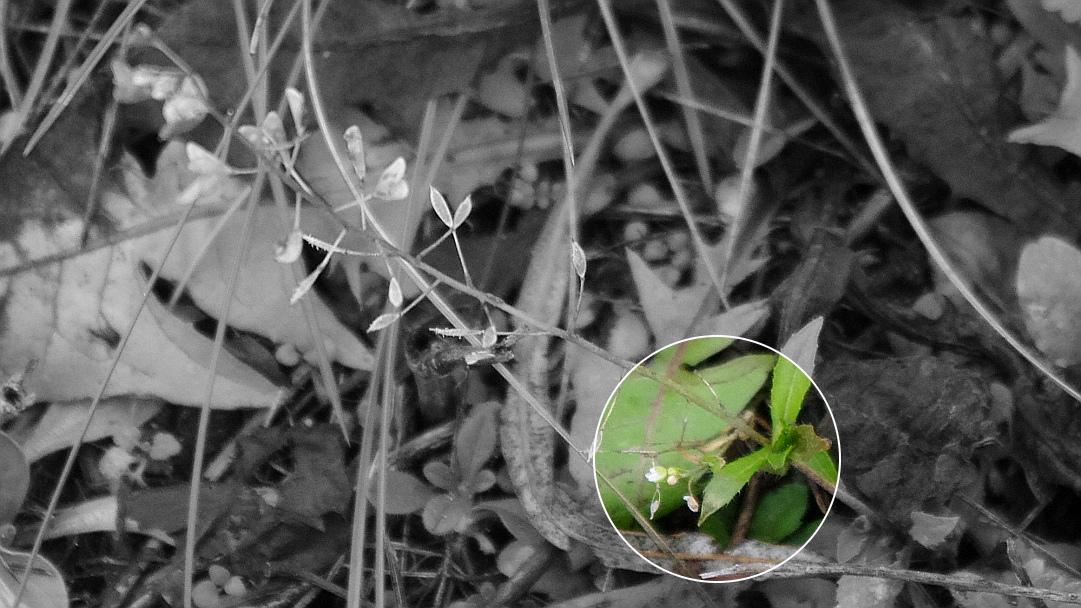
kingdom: Plantae
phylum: Tracheophyta
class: Magnoliopsida
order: Brassicales
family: Brassicaceae
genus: Capsella
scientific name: Capsella bursa-pastoris
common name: Shepherd's purse
